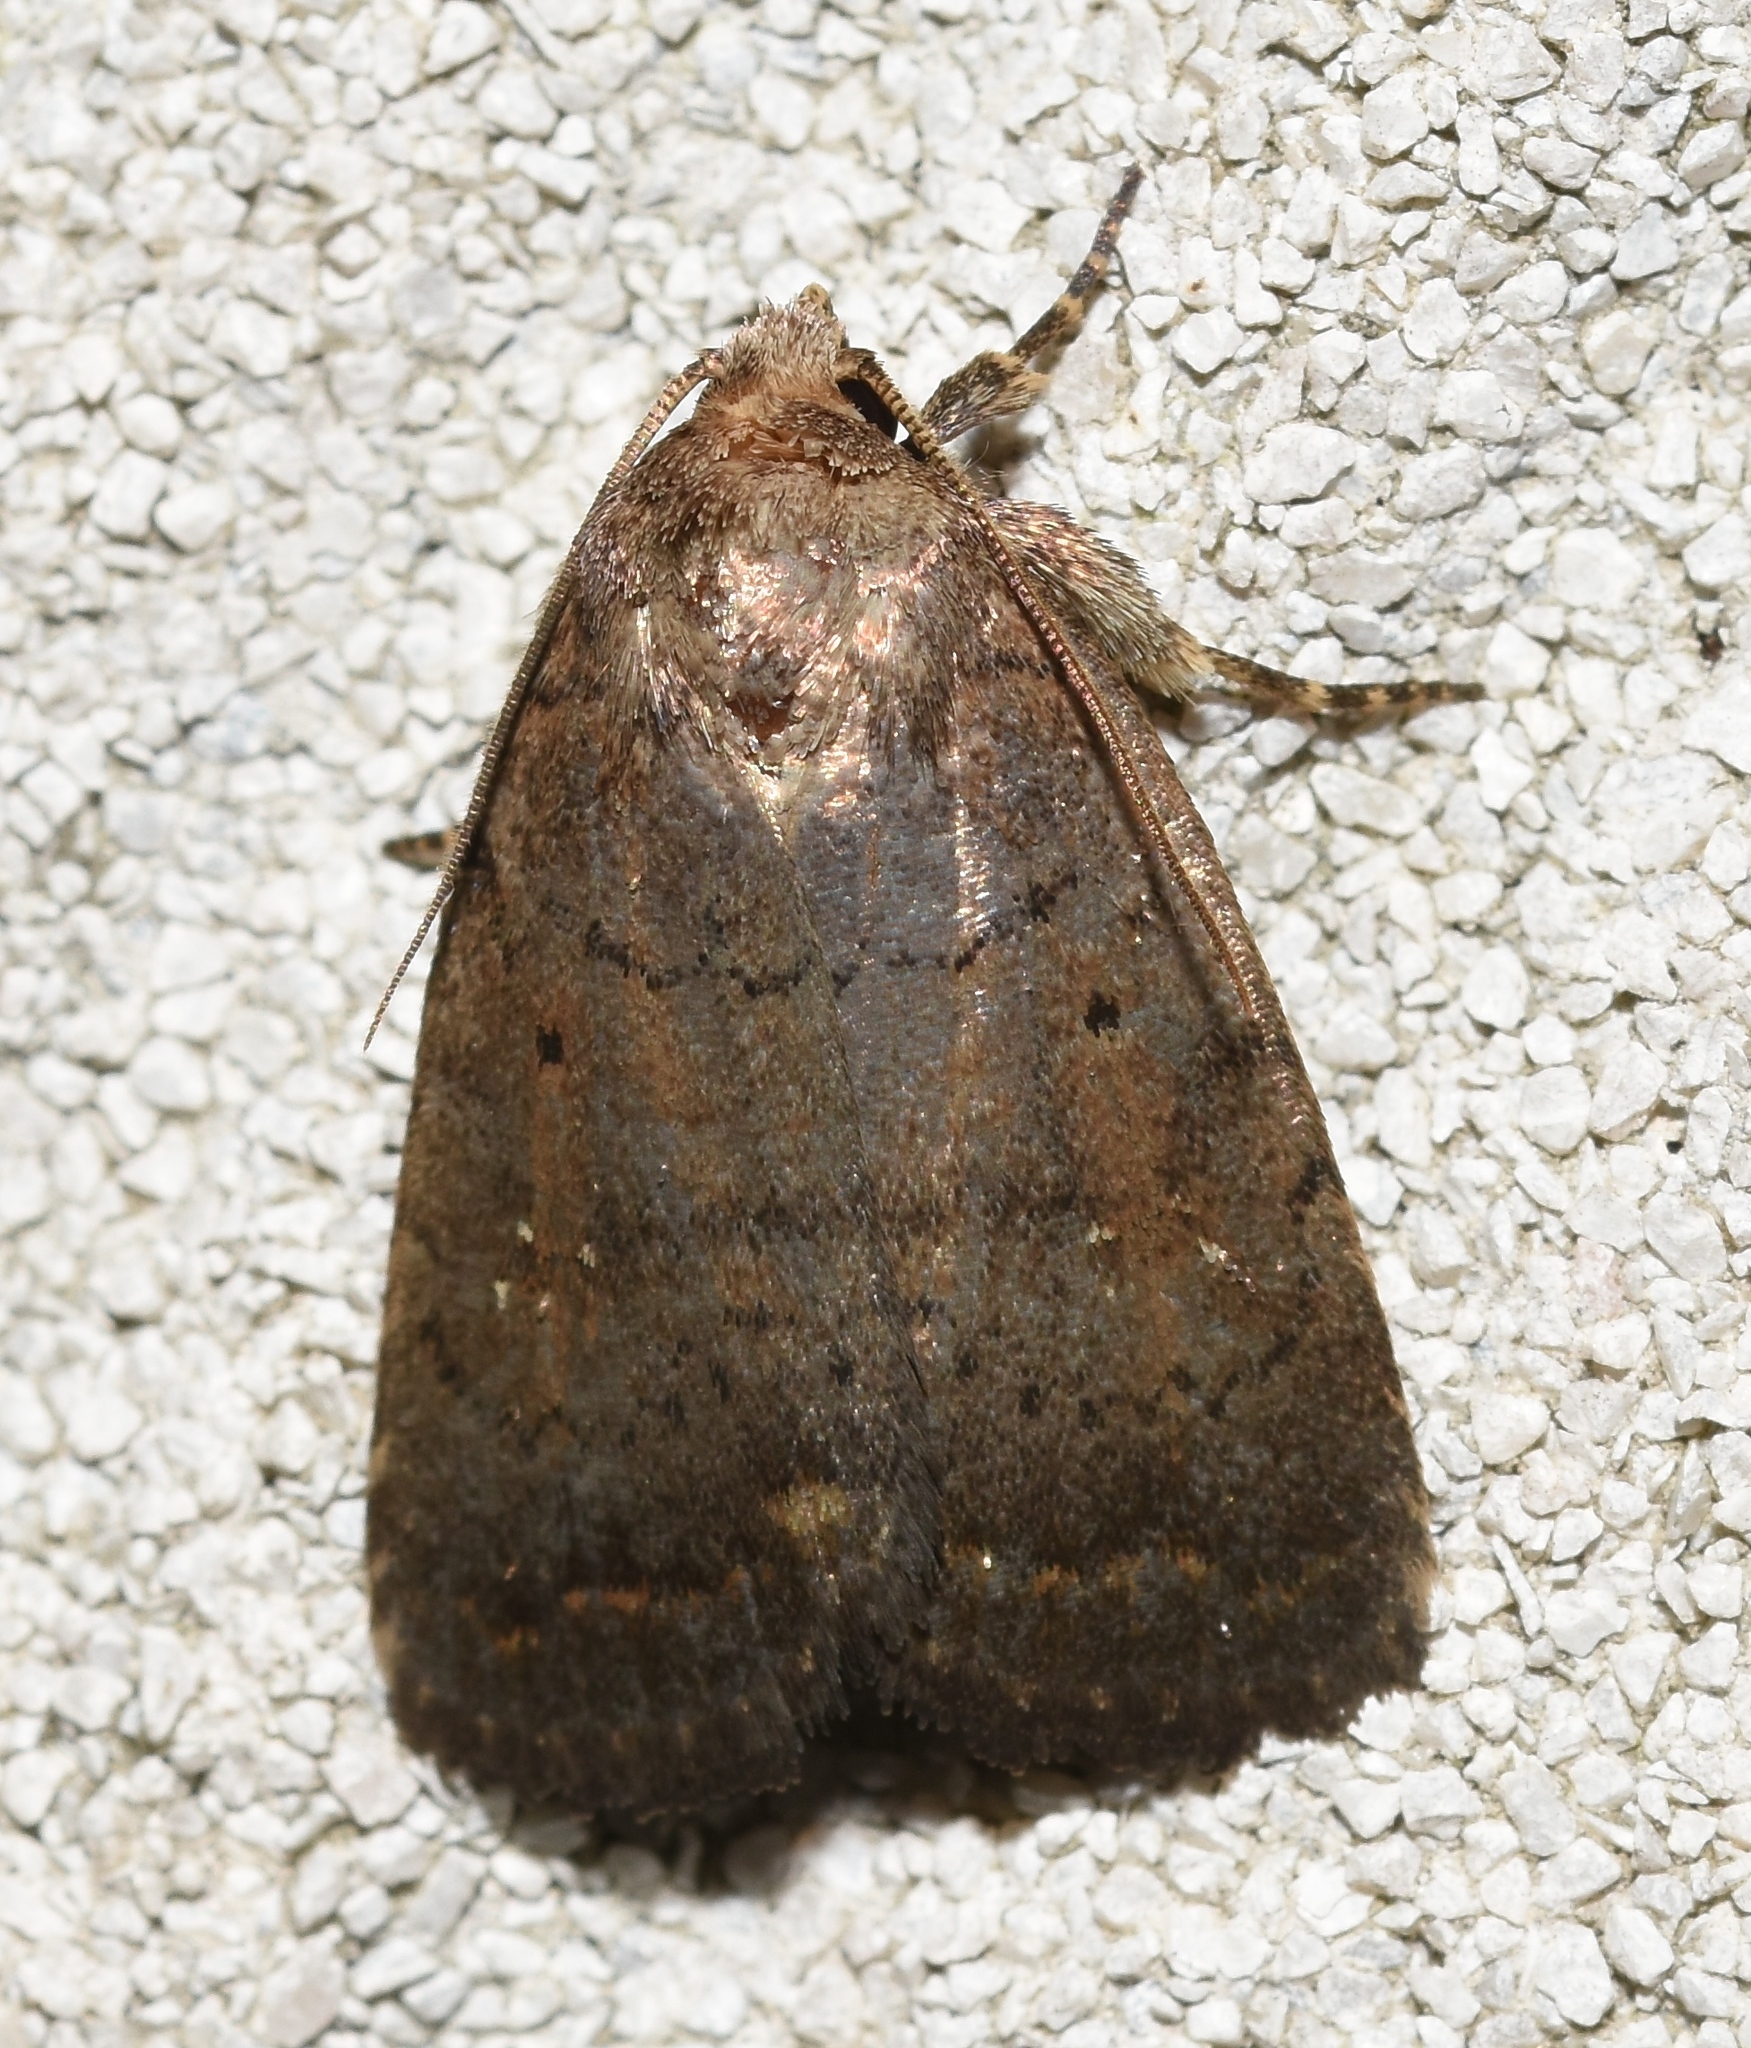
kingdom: Animalia
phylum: Arthropoda
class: Insecta
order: Lepidoptera
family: Noctuidae
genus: Athetis
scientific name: Athetis tarda
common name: Slowpoke moth
